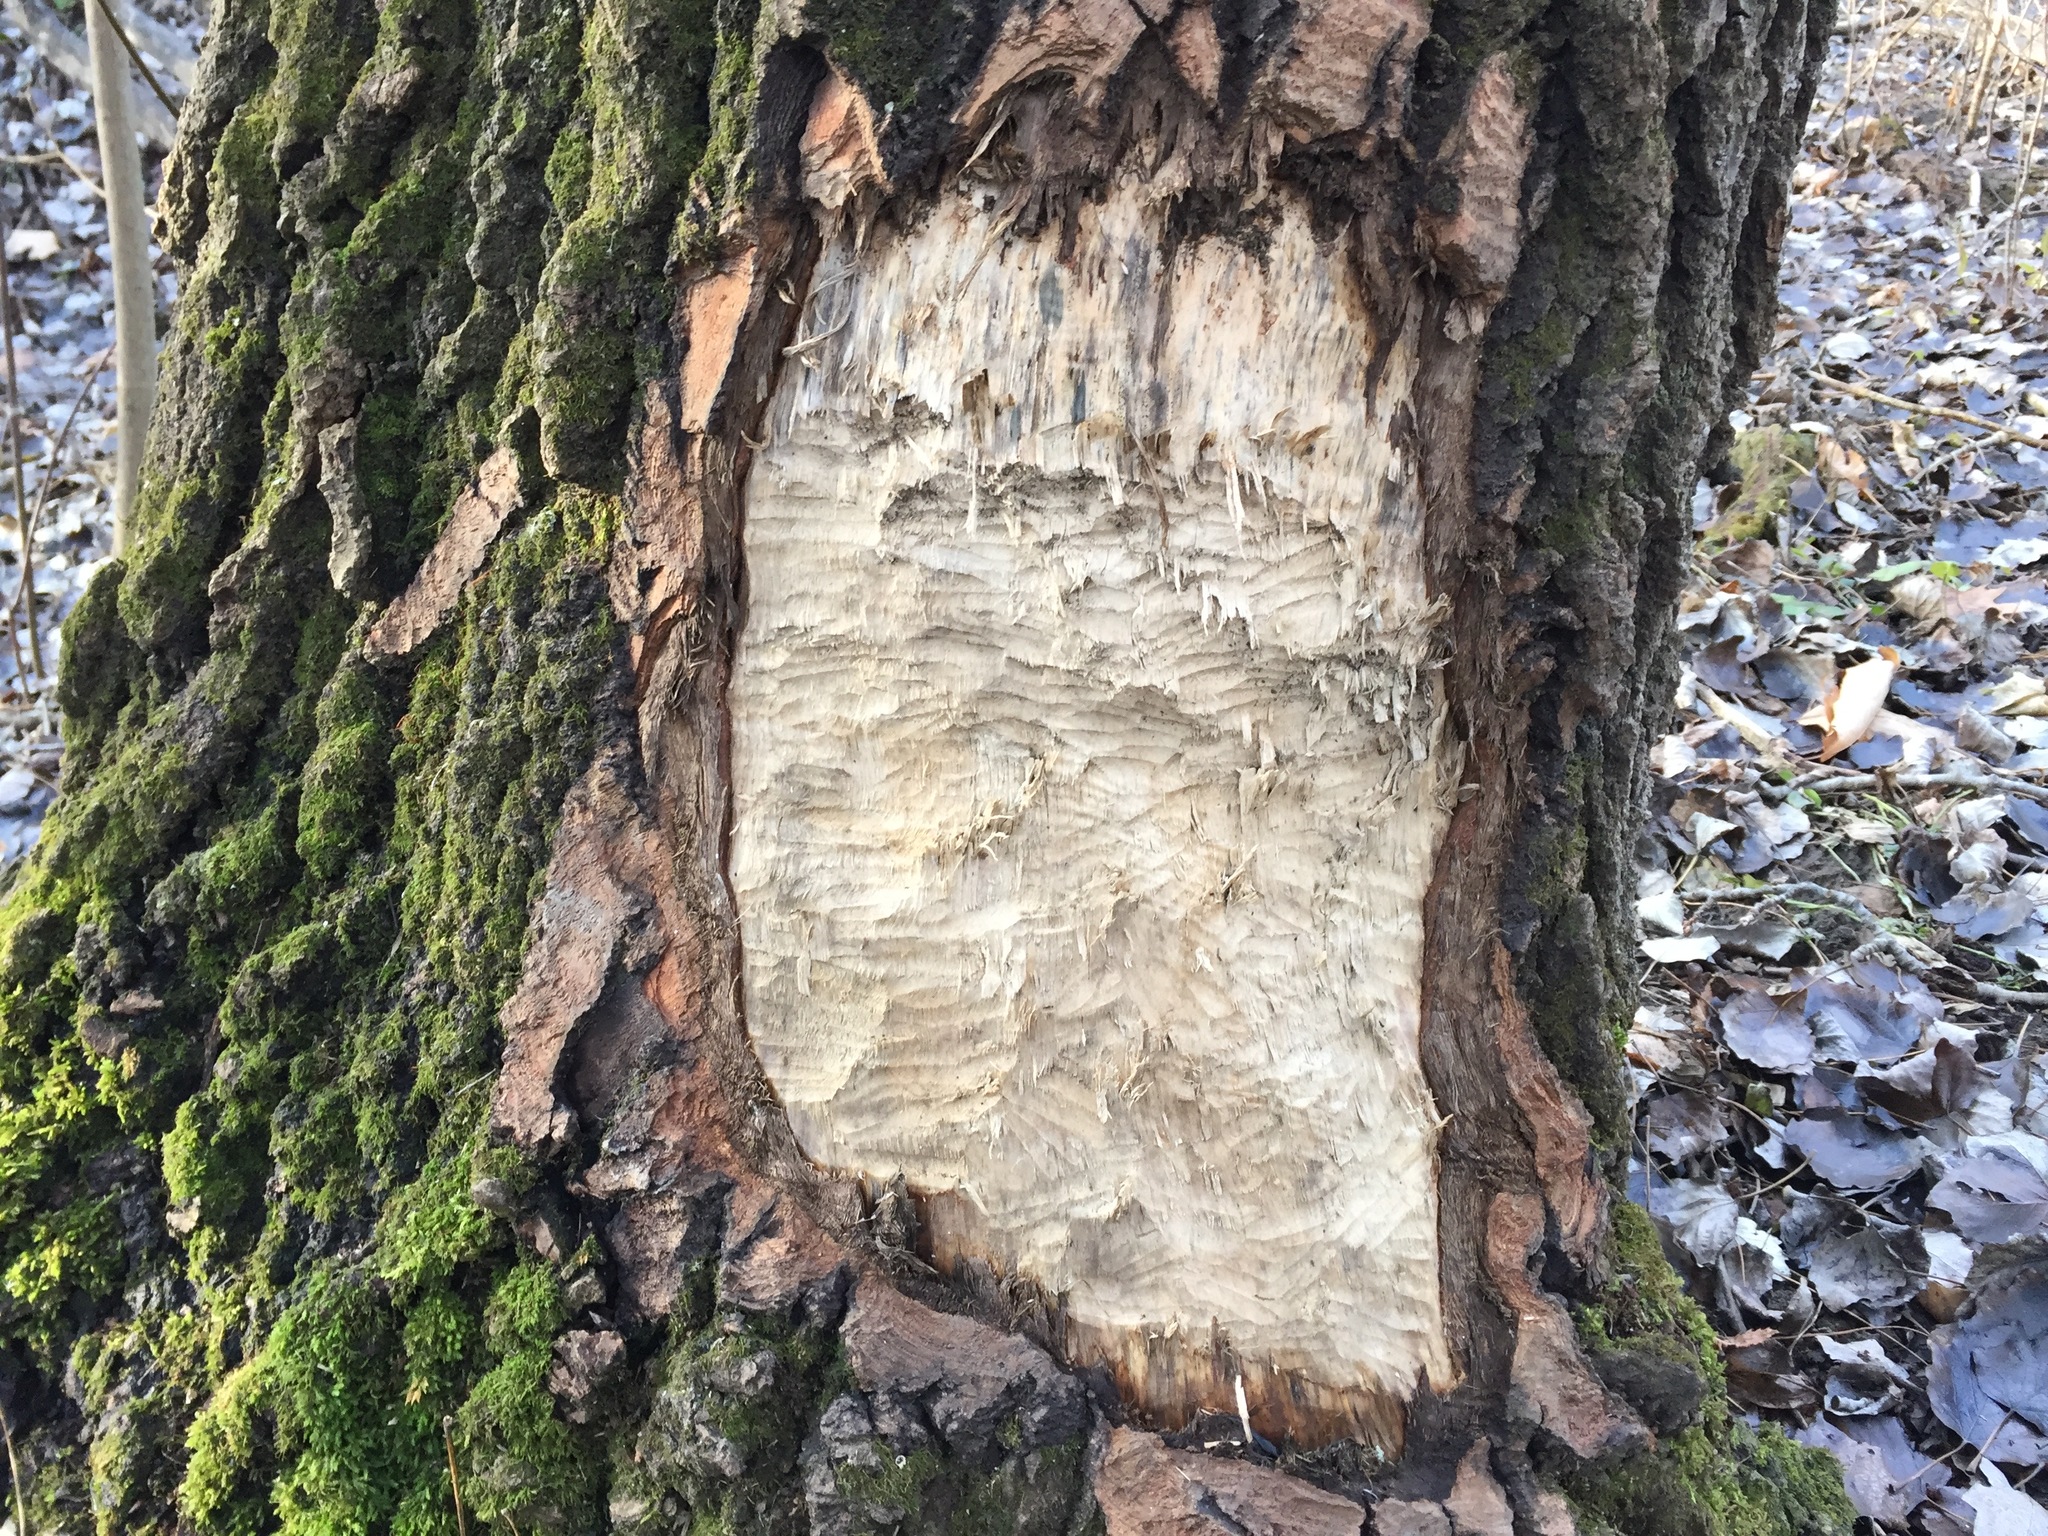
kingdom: Animalia
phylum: Chordata
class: Mammalia
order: Rodentia
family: Castoridae
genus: Castor
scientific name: Castor canadensis
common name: American beaver
